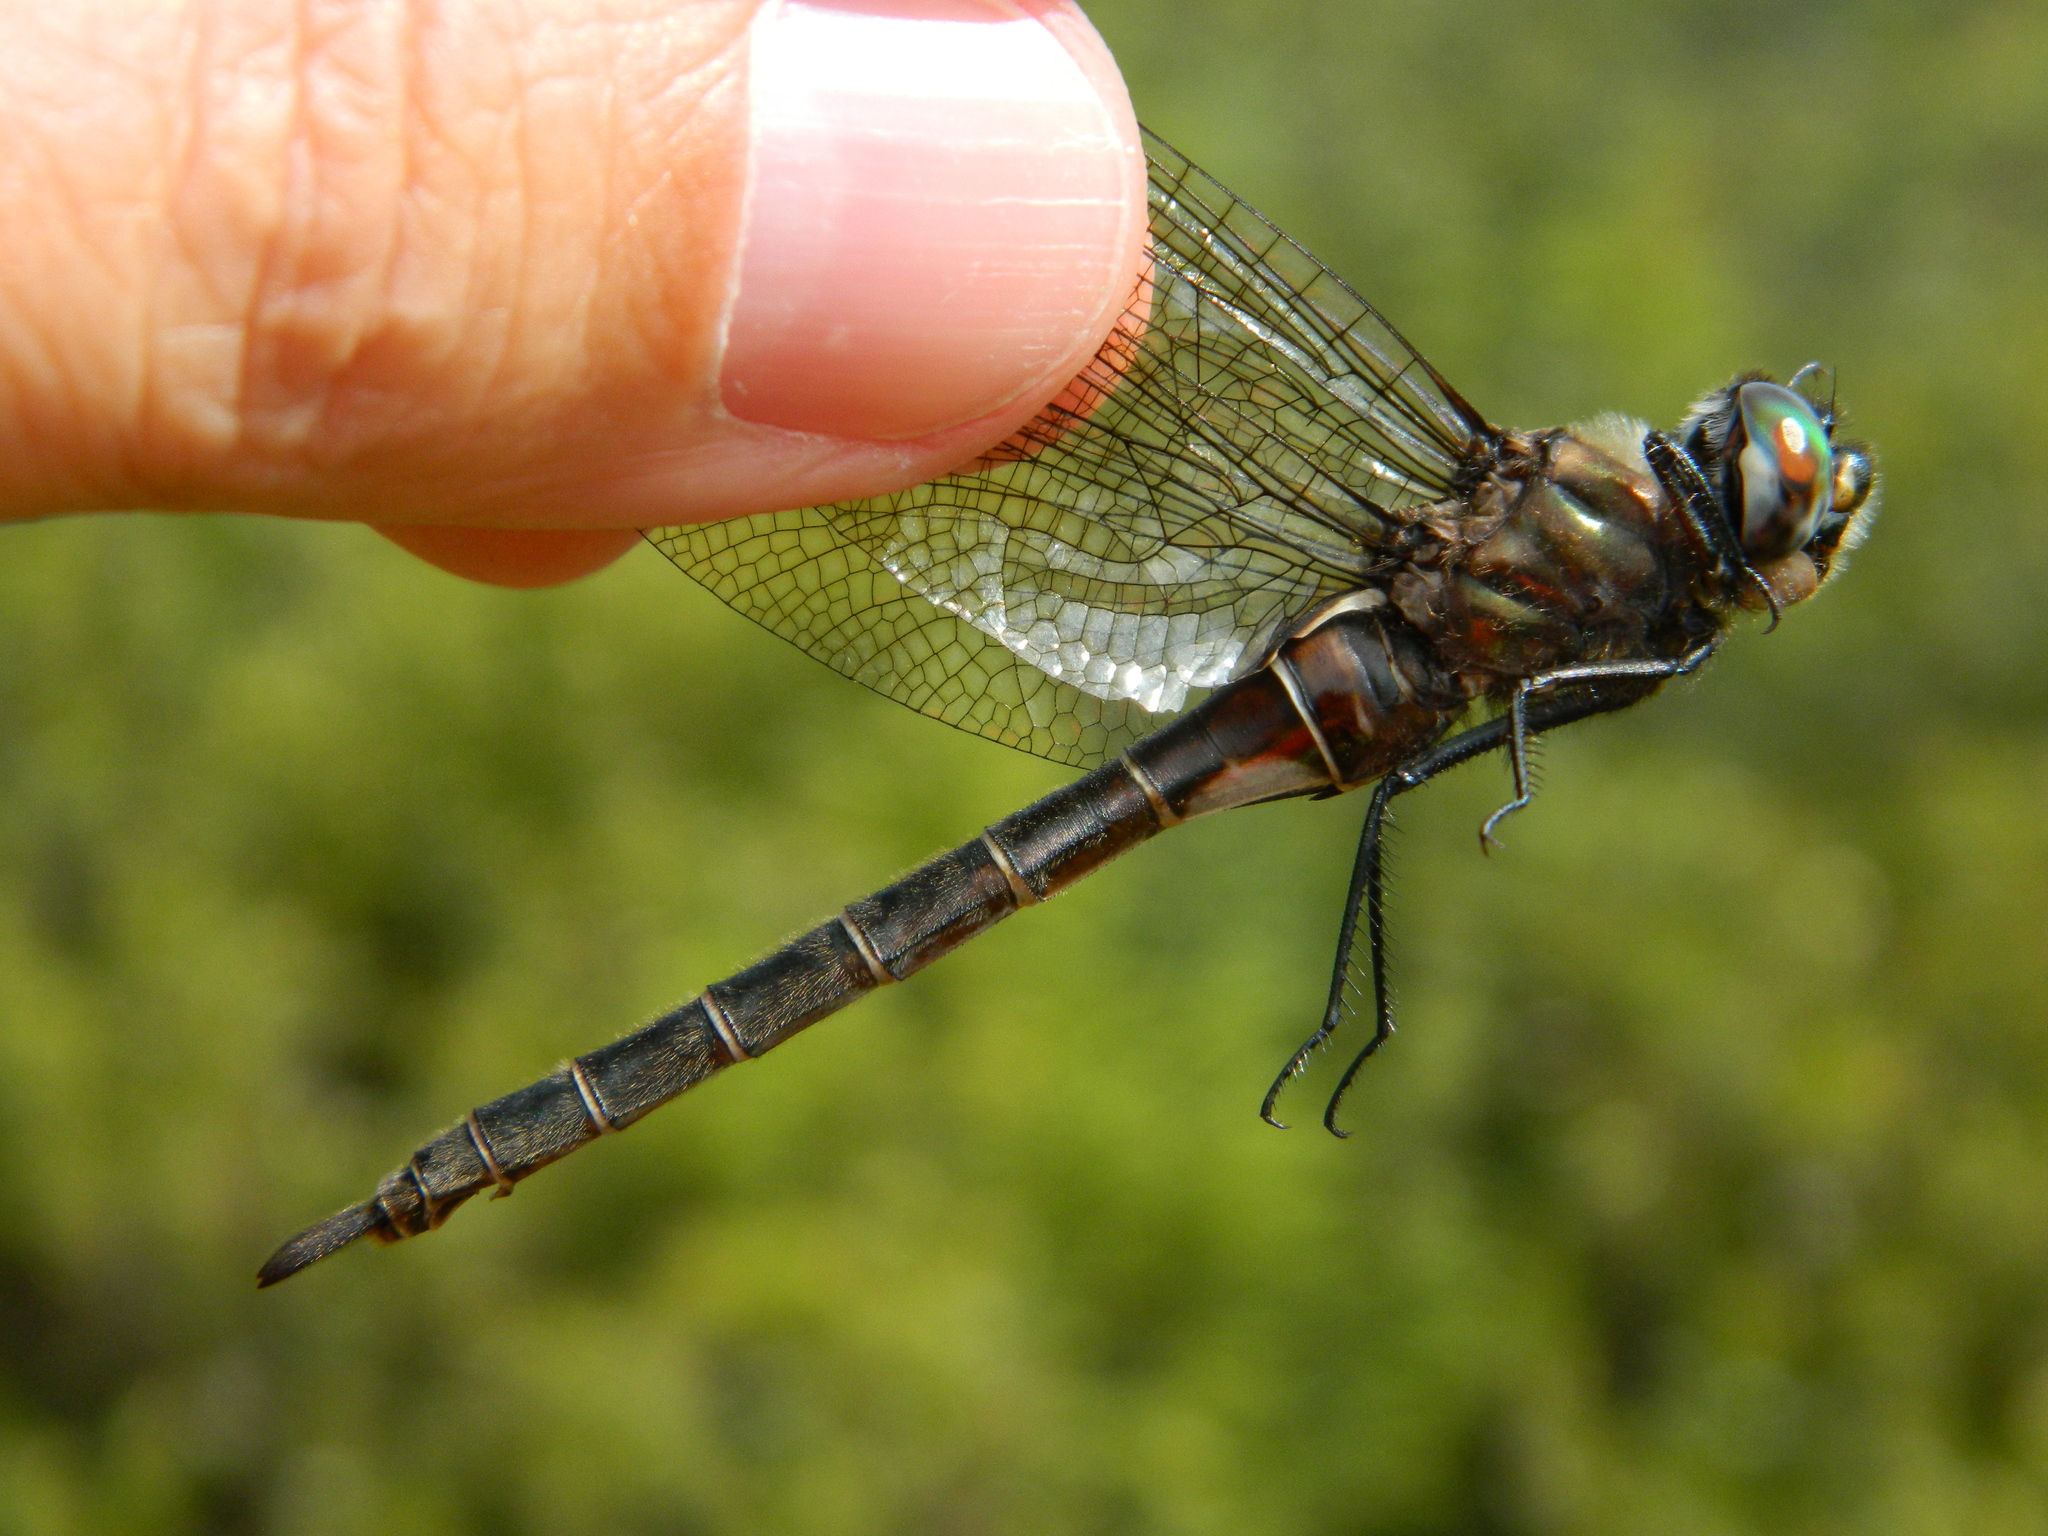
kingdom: Animalia
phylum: Arthropoda
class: Insecta
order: Odonata
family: Corduliidae
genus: Somatochlora
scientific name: Somatochlora cingulata
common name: Lake emerald
